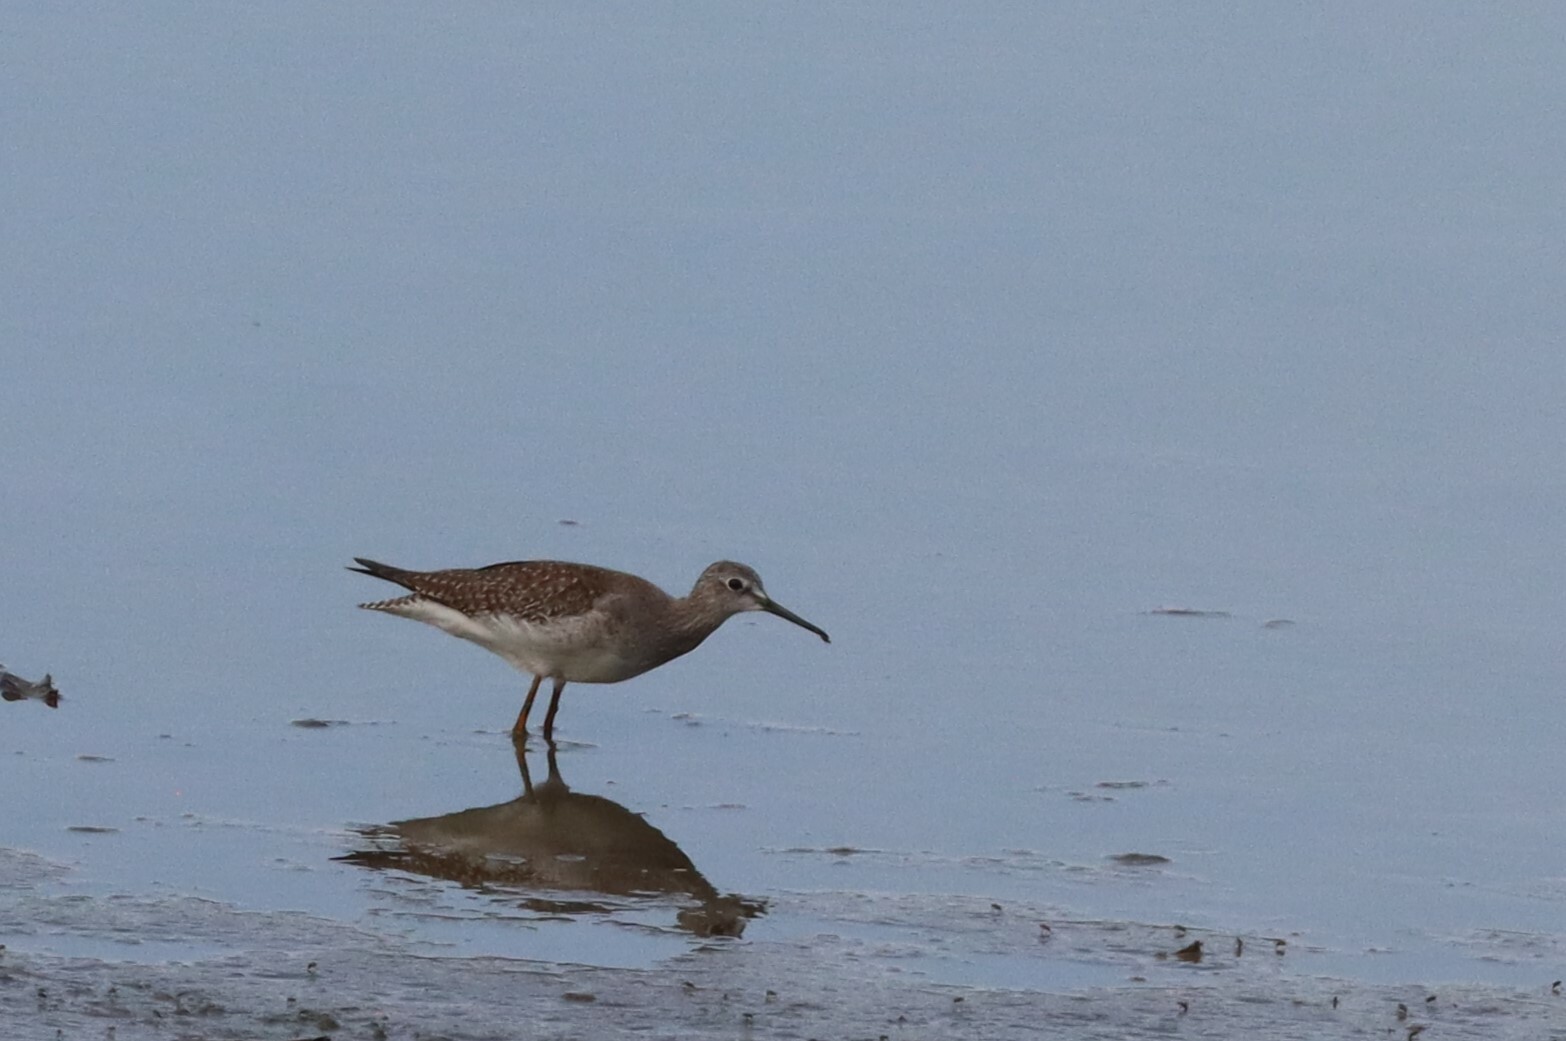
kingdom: Animalia
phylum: Chordata
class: Aves
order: Charadriiformes
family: Scolopacidae
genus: Tringa
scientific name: Tringa solitaria
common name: Solitary sandpiper
